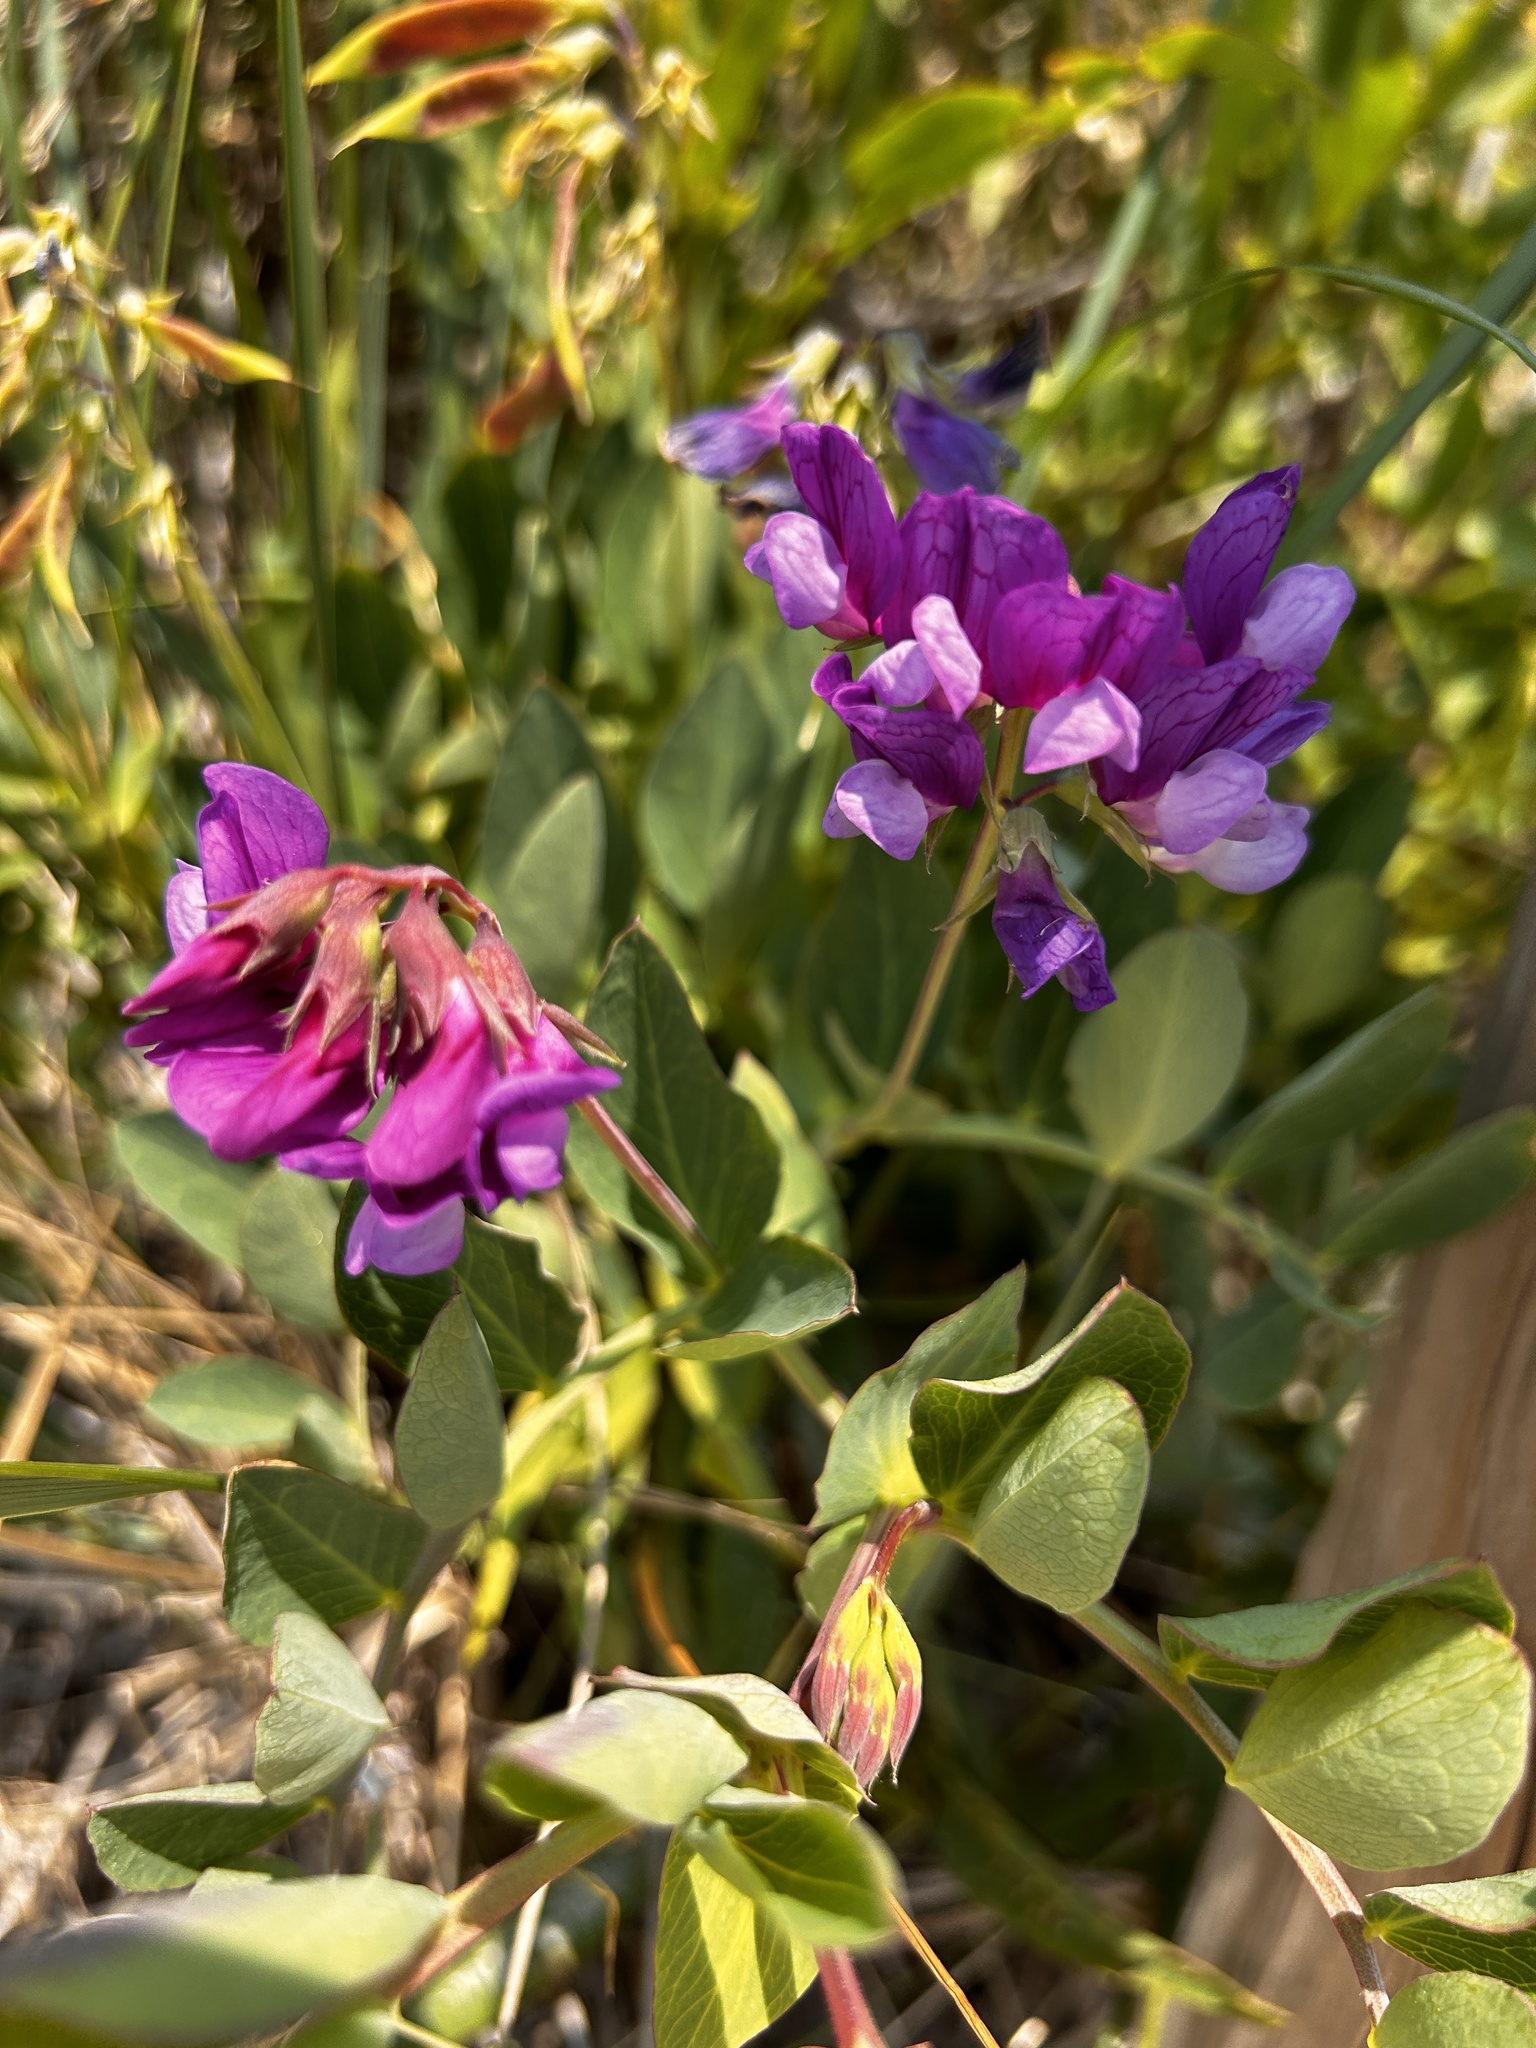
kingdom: Plantae
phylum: Tracheophyta
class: Magnoliopsida
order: Fabales
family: Fabaceae
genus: Lathyrus
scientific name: Lathyrus japonicus
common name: Sea pea
